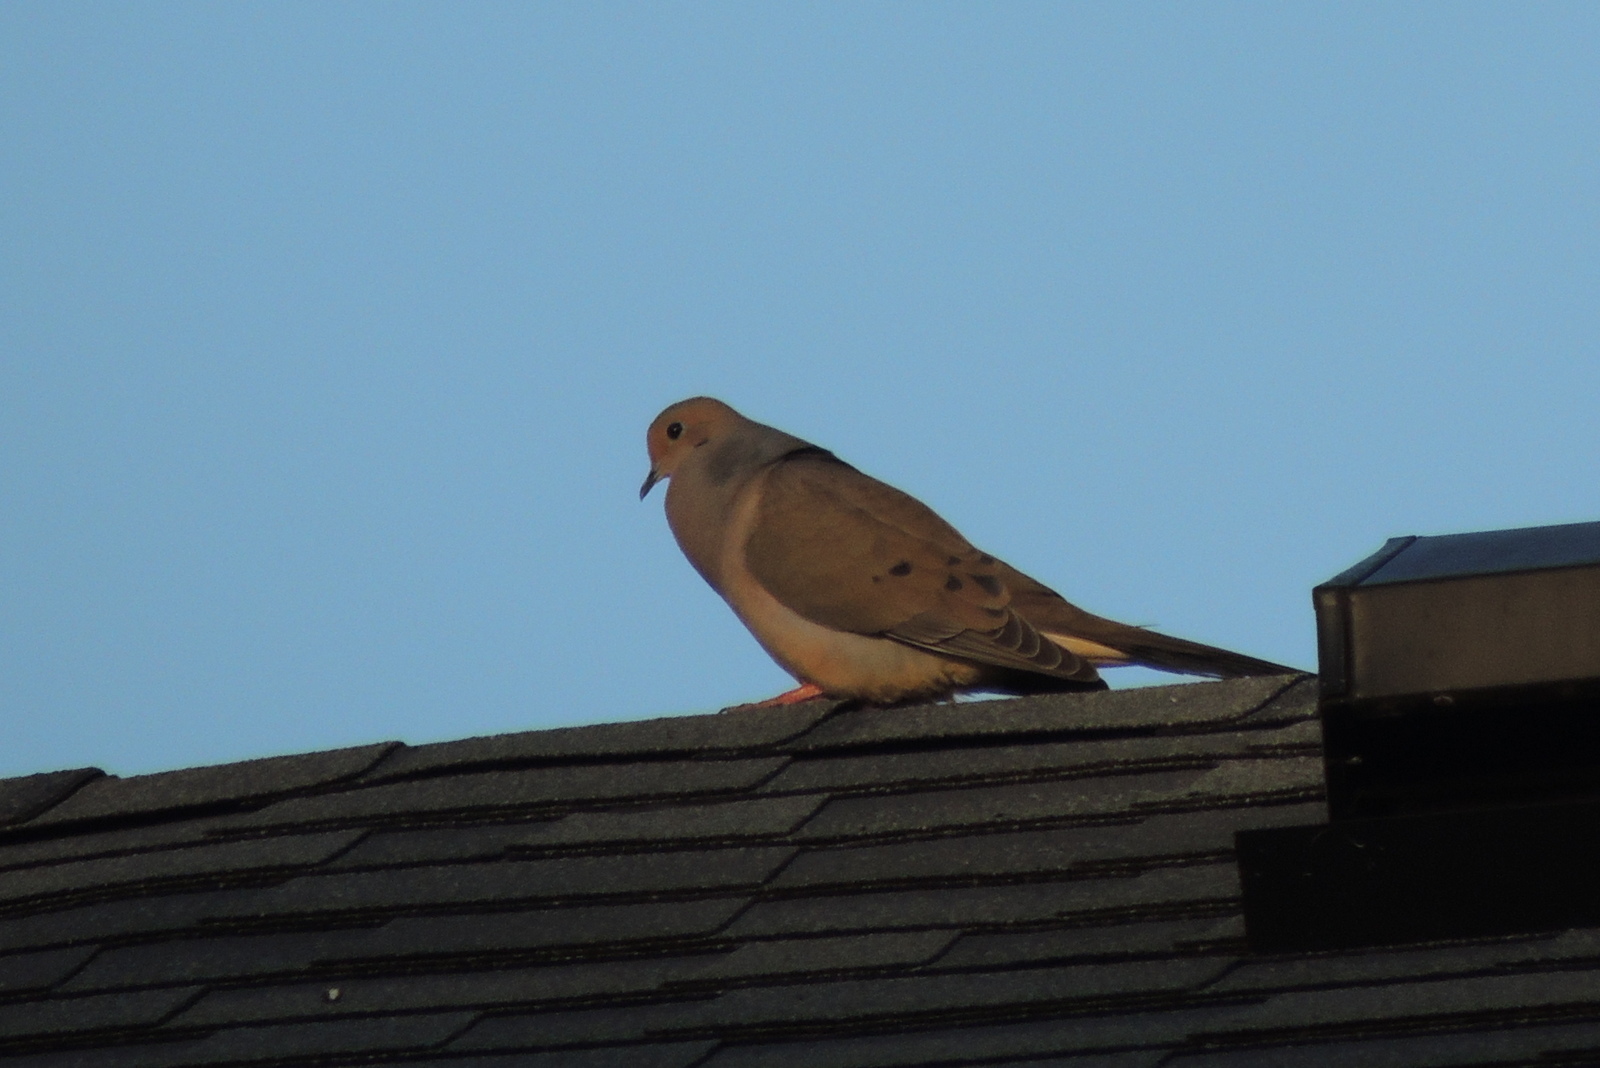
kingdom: Animalia
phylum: Chordata
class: Aves
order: Columbiformes
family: Columbidae
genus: Zenaida
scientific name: Zenaida macroura
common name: Mourning dove
